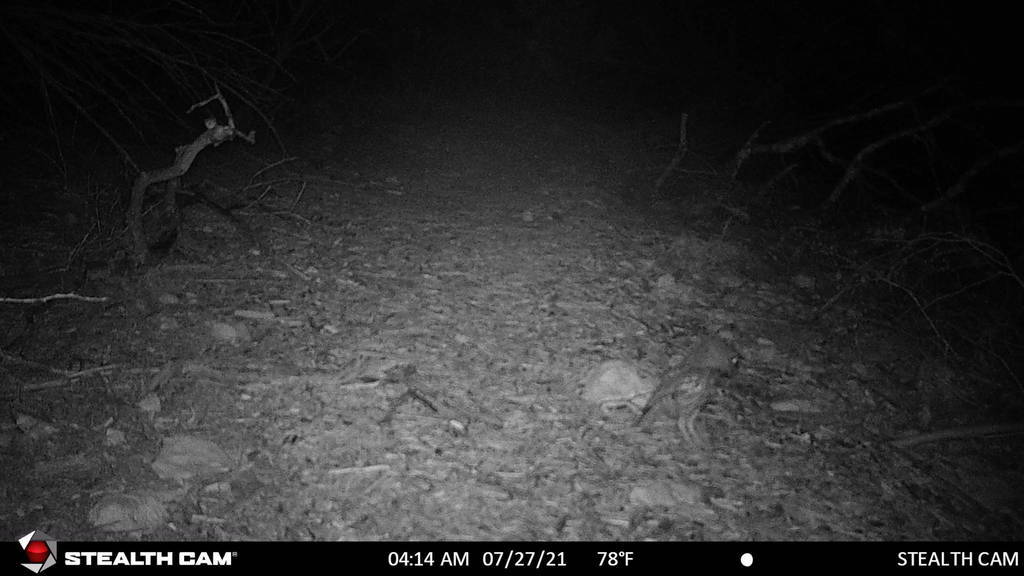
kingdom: Animalia
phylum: Chordata
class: Aves
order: Strigiformes
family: Strigidae
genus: Megascops
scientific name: Megascops asio
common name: Eastern screech-owl
